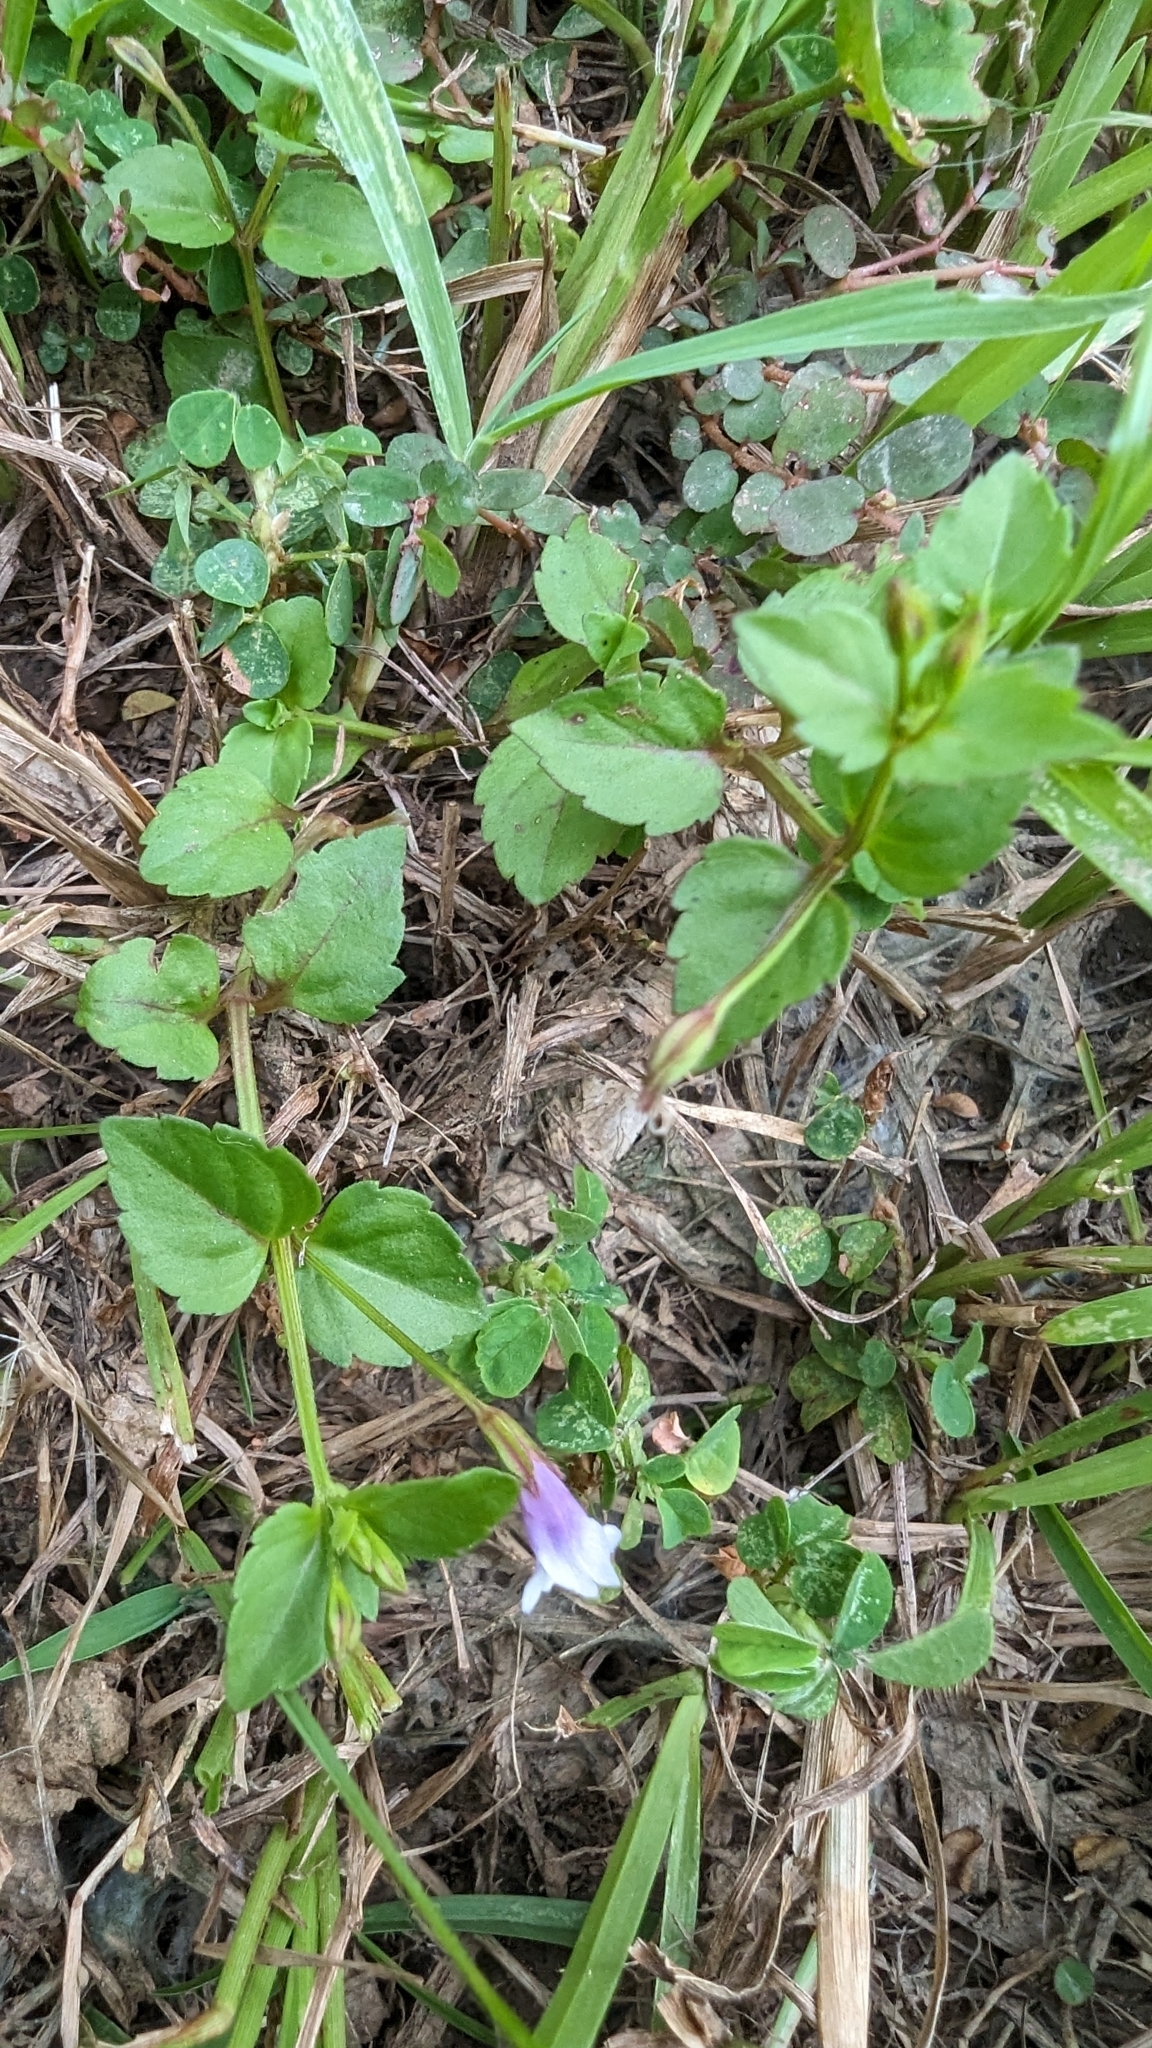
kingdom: Plantae
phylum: Tracheophyta
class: Magnoliopsida
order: Lamiales
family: Linderniaceae
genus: Torenia
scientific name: Torenia crustacea
